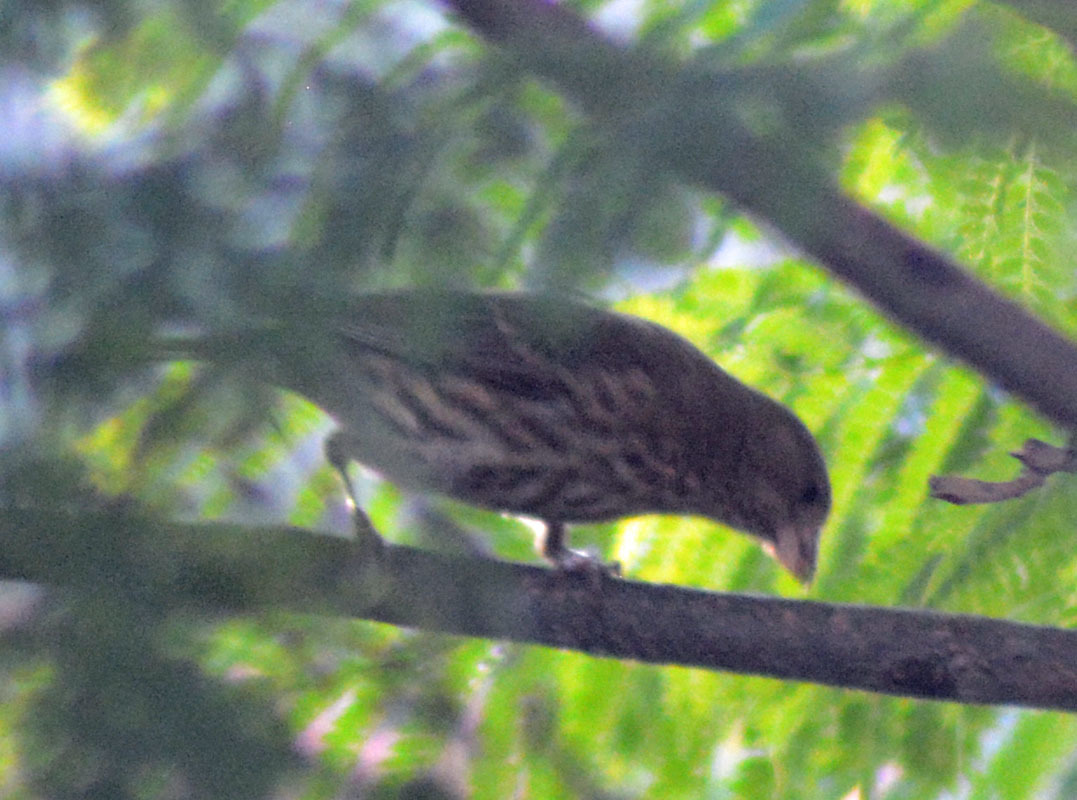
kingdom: Animalia
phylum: Chordata
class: Aves
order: Passeriformes
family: Fringillidae
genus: Haemorhous
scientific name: Haemorhous mexicanus
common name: House finch
